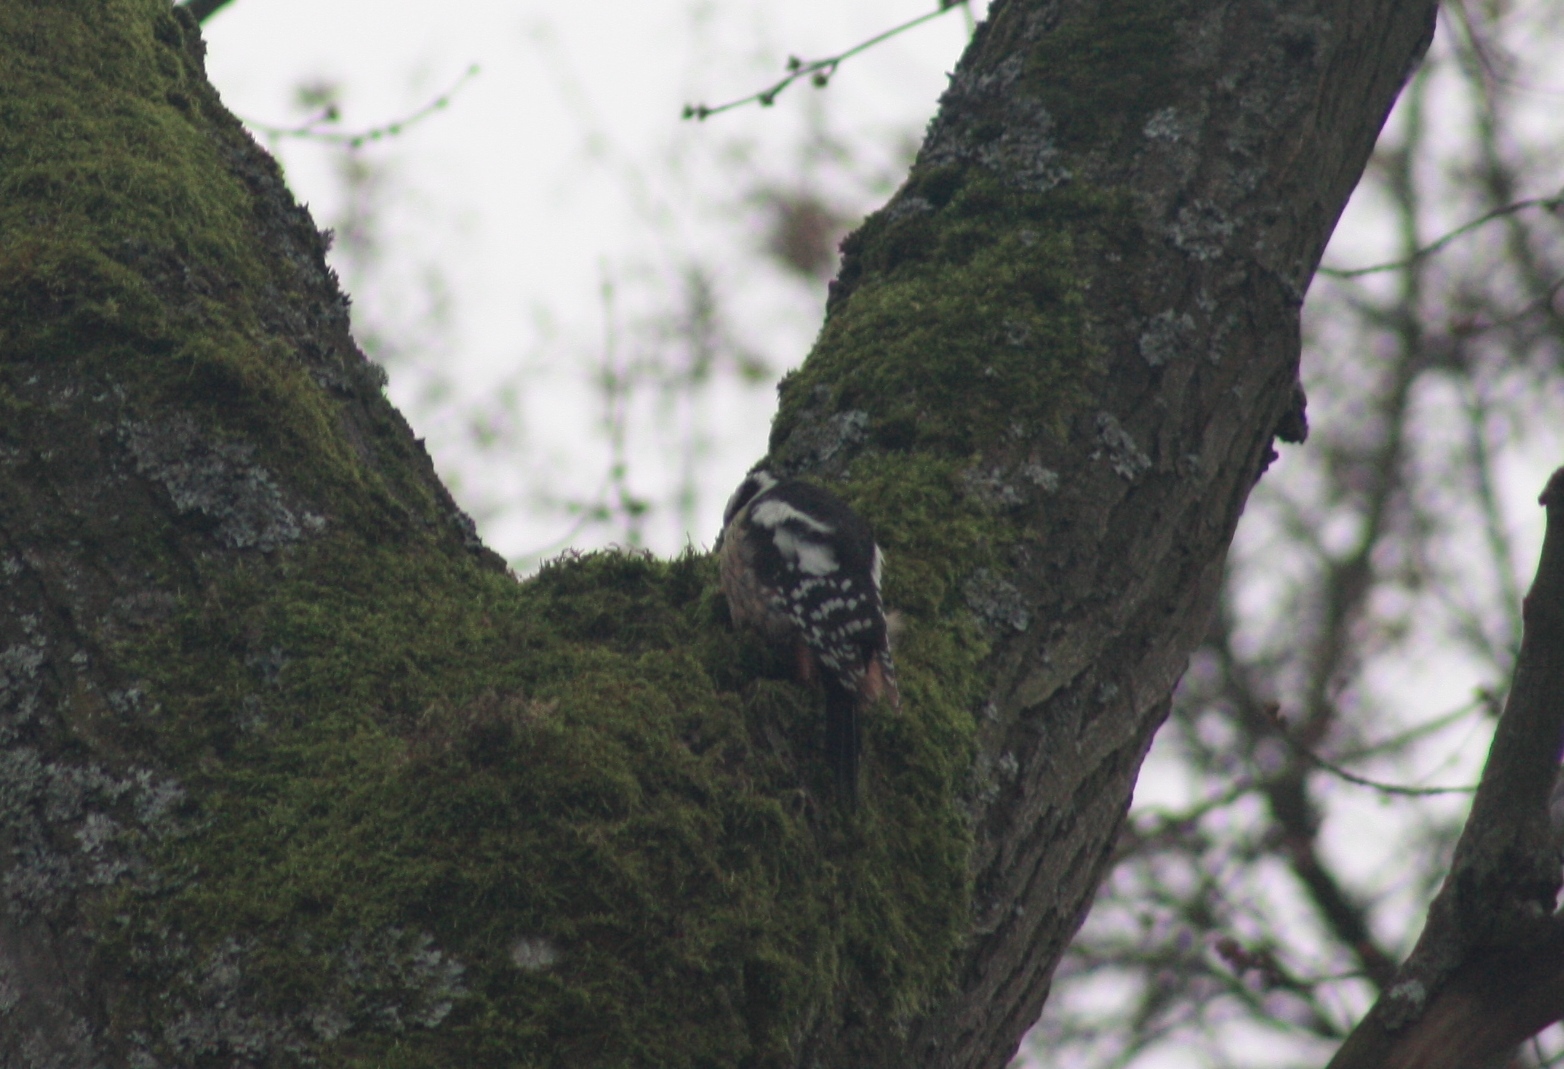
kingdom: Animalia
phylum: Chordata
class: Aves
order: Piciformes
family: Picidae
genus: Dendrocoptes
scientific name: Dendrocoptes medius
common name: Middle spotted woodpecker
